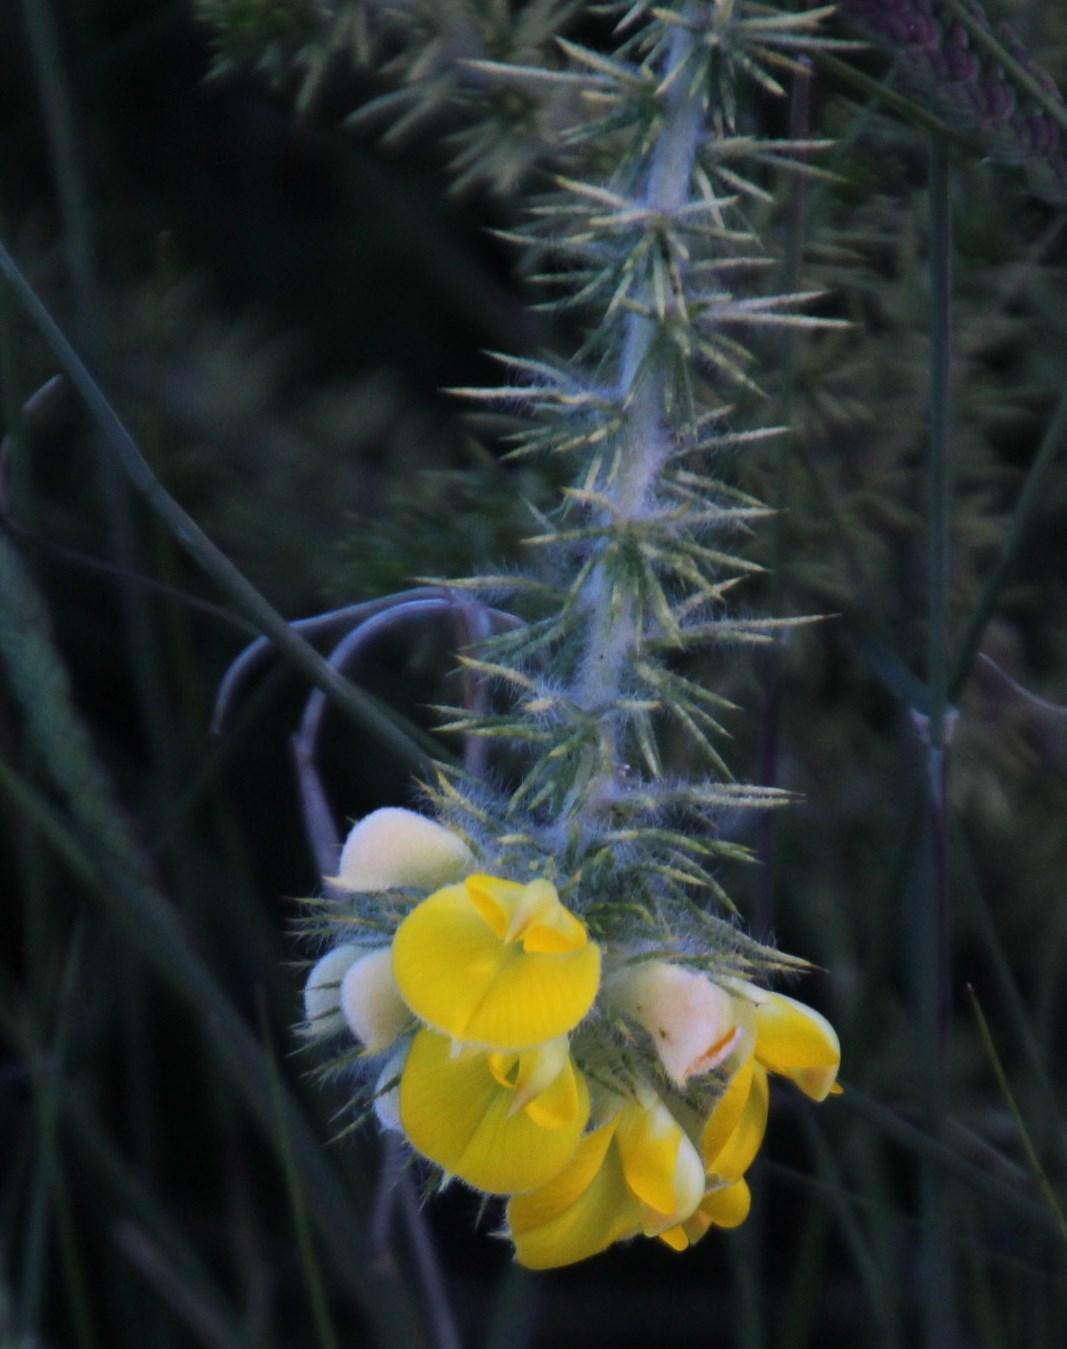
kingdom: Plantae
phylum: Tracheophyta
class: Magnoliopsida
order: Fabales
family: Fabaceae
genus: Aspalathus
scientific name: Aspalathus chenopoda
